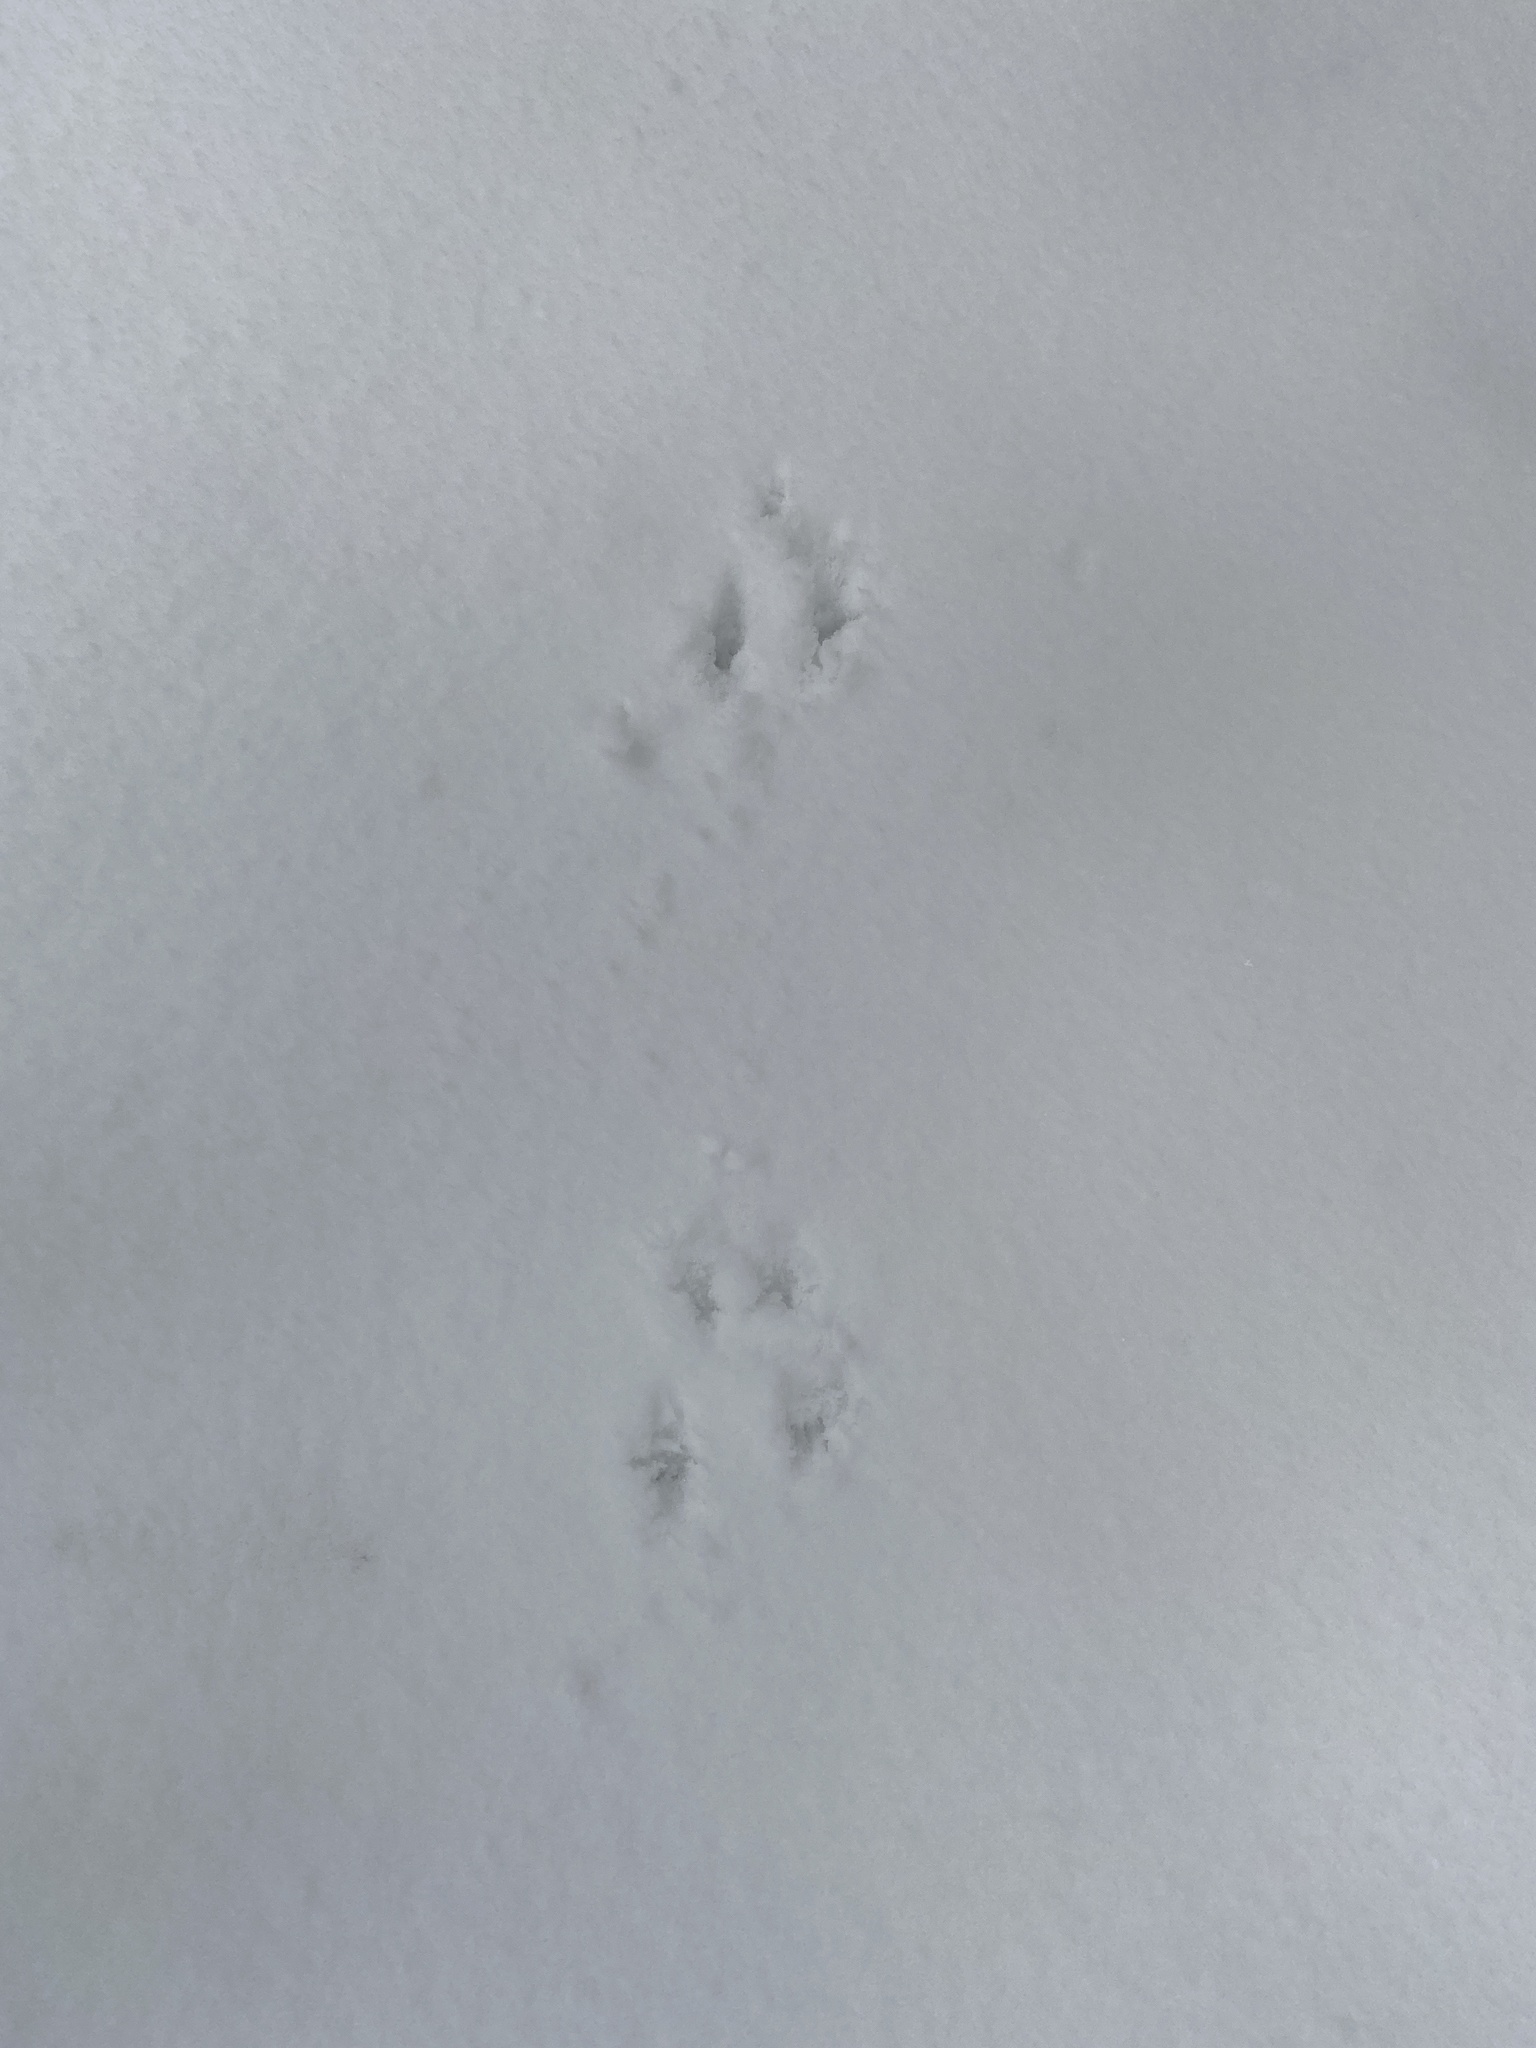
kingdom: Animalia
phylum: Chordata
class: Mammalia
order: Rodentia
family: Sciuridae
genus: Tamiasciurus
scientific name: Tamiasciurus hudsonicus
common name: Red squirrel
